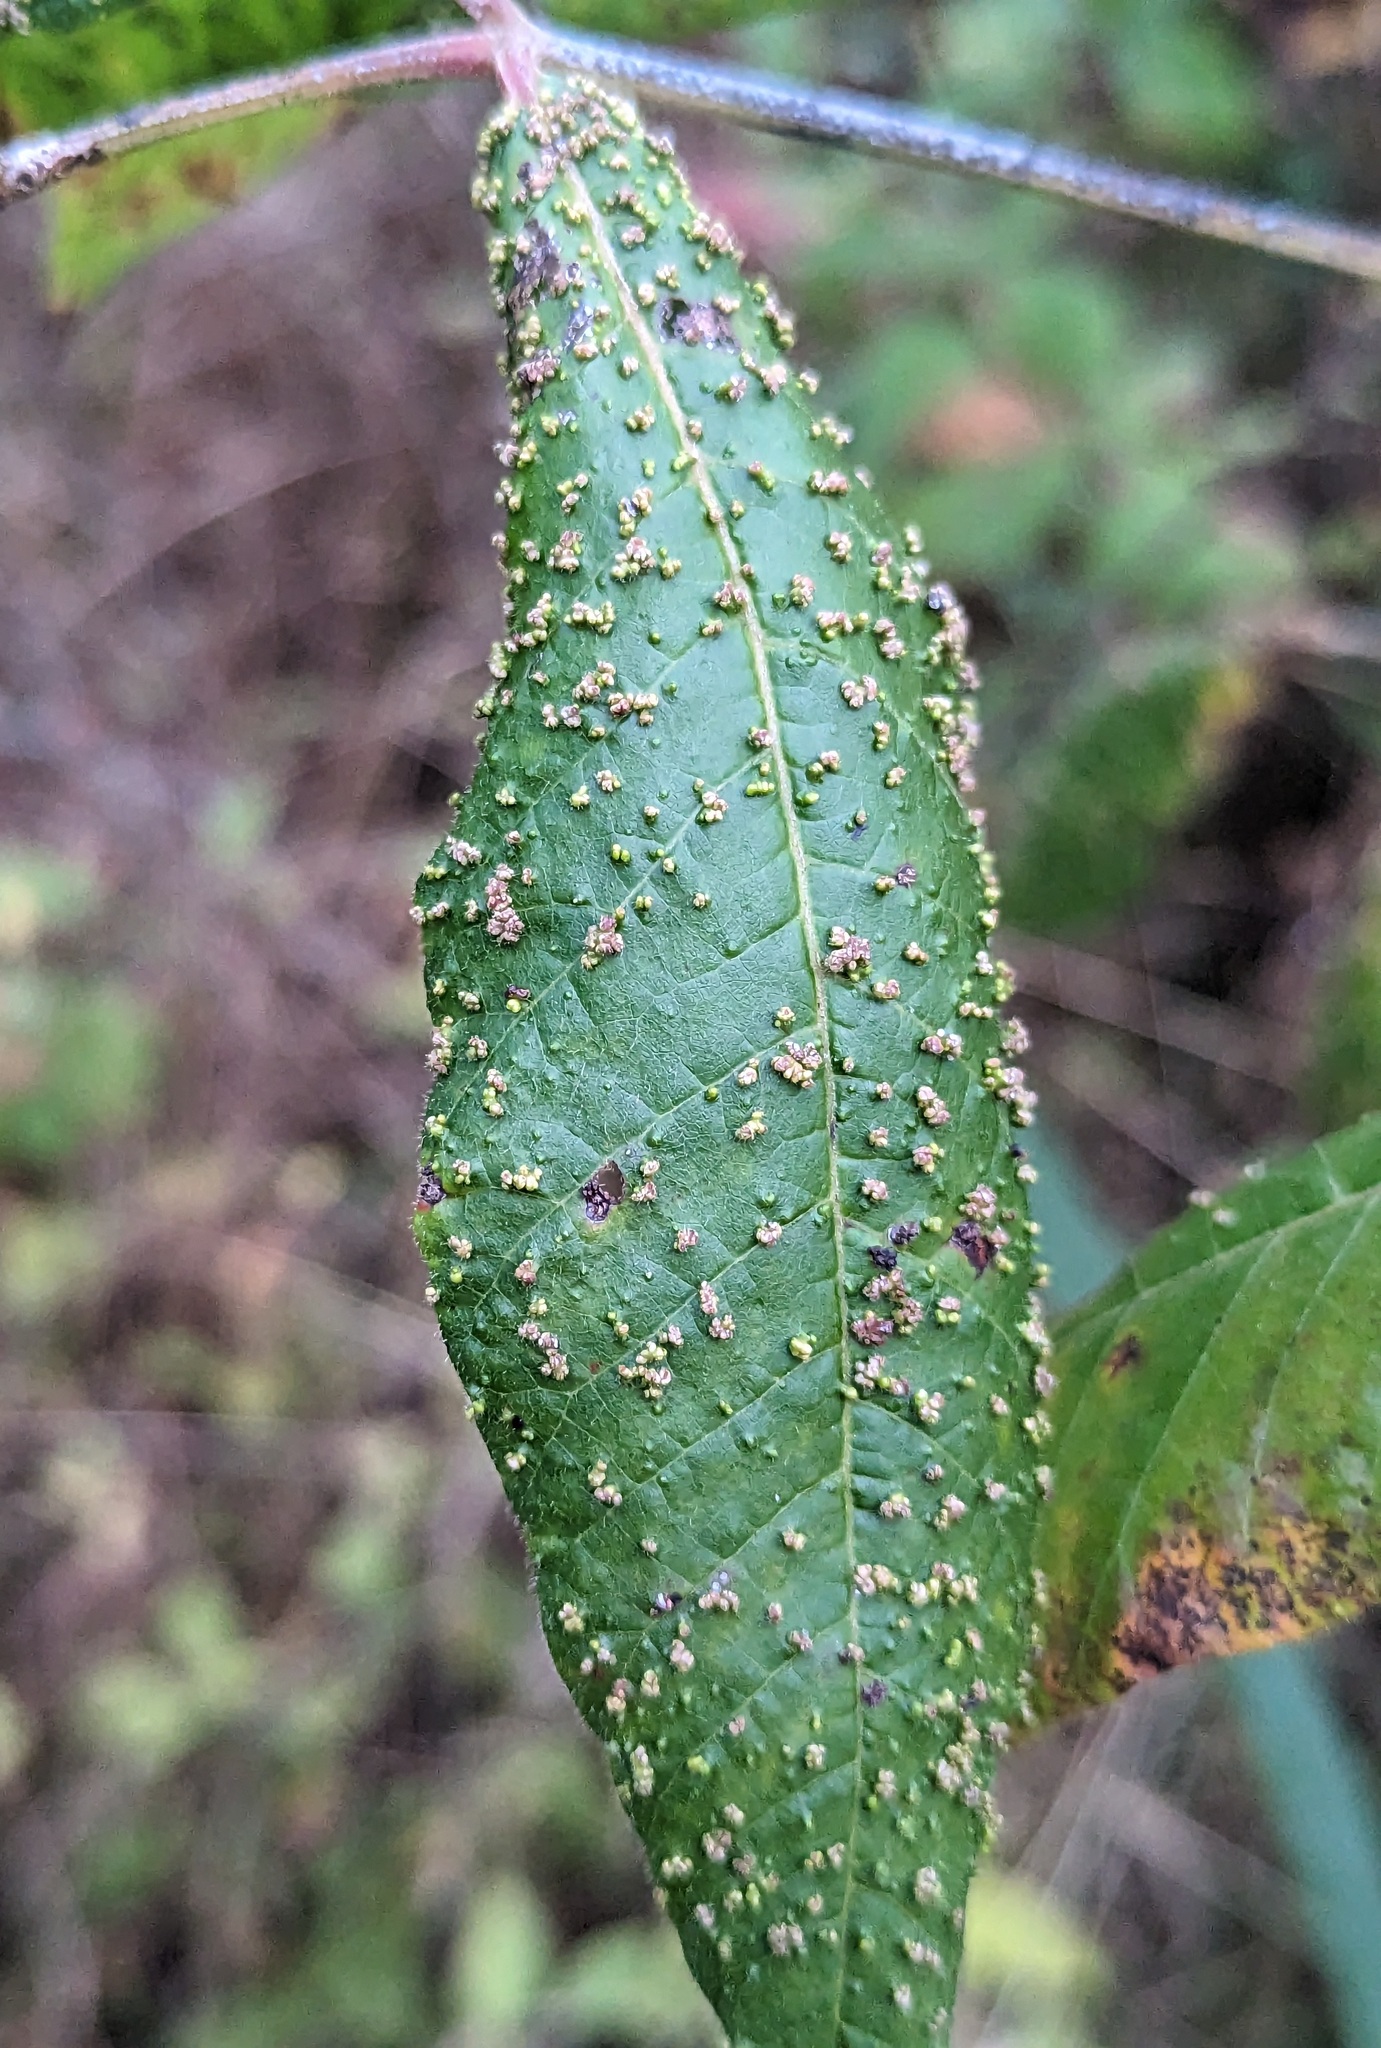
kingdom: Animalia
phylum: Arthropoda
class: Arachnida
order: Trombidiformes
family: Eriophyidae
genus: Aculops
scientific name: Aculops
